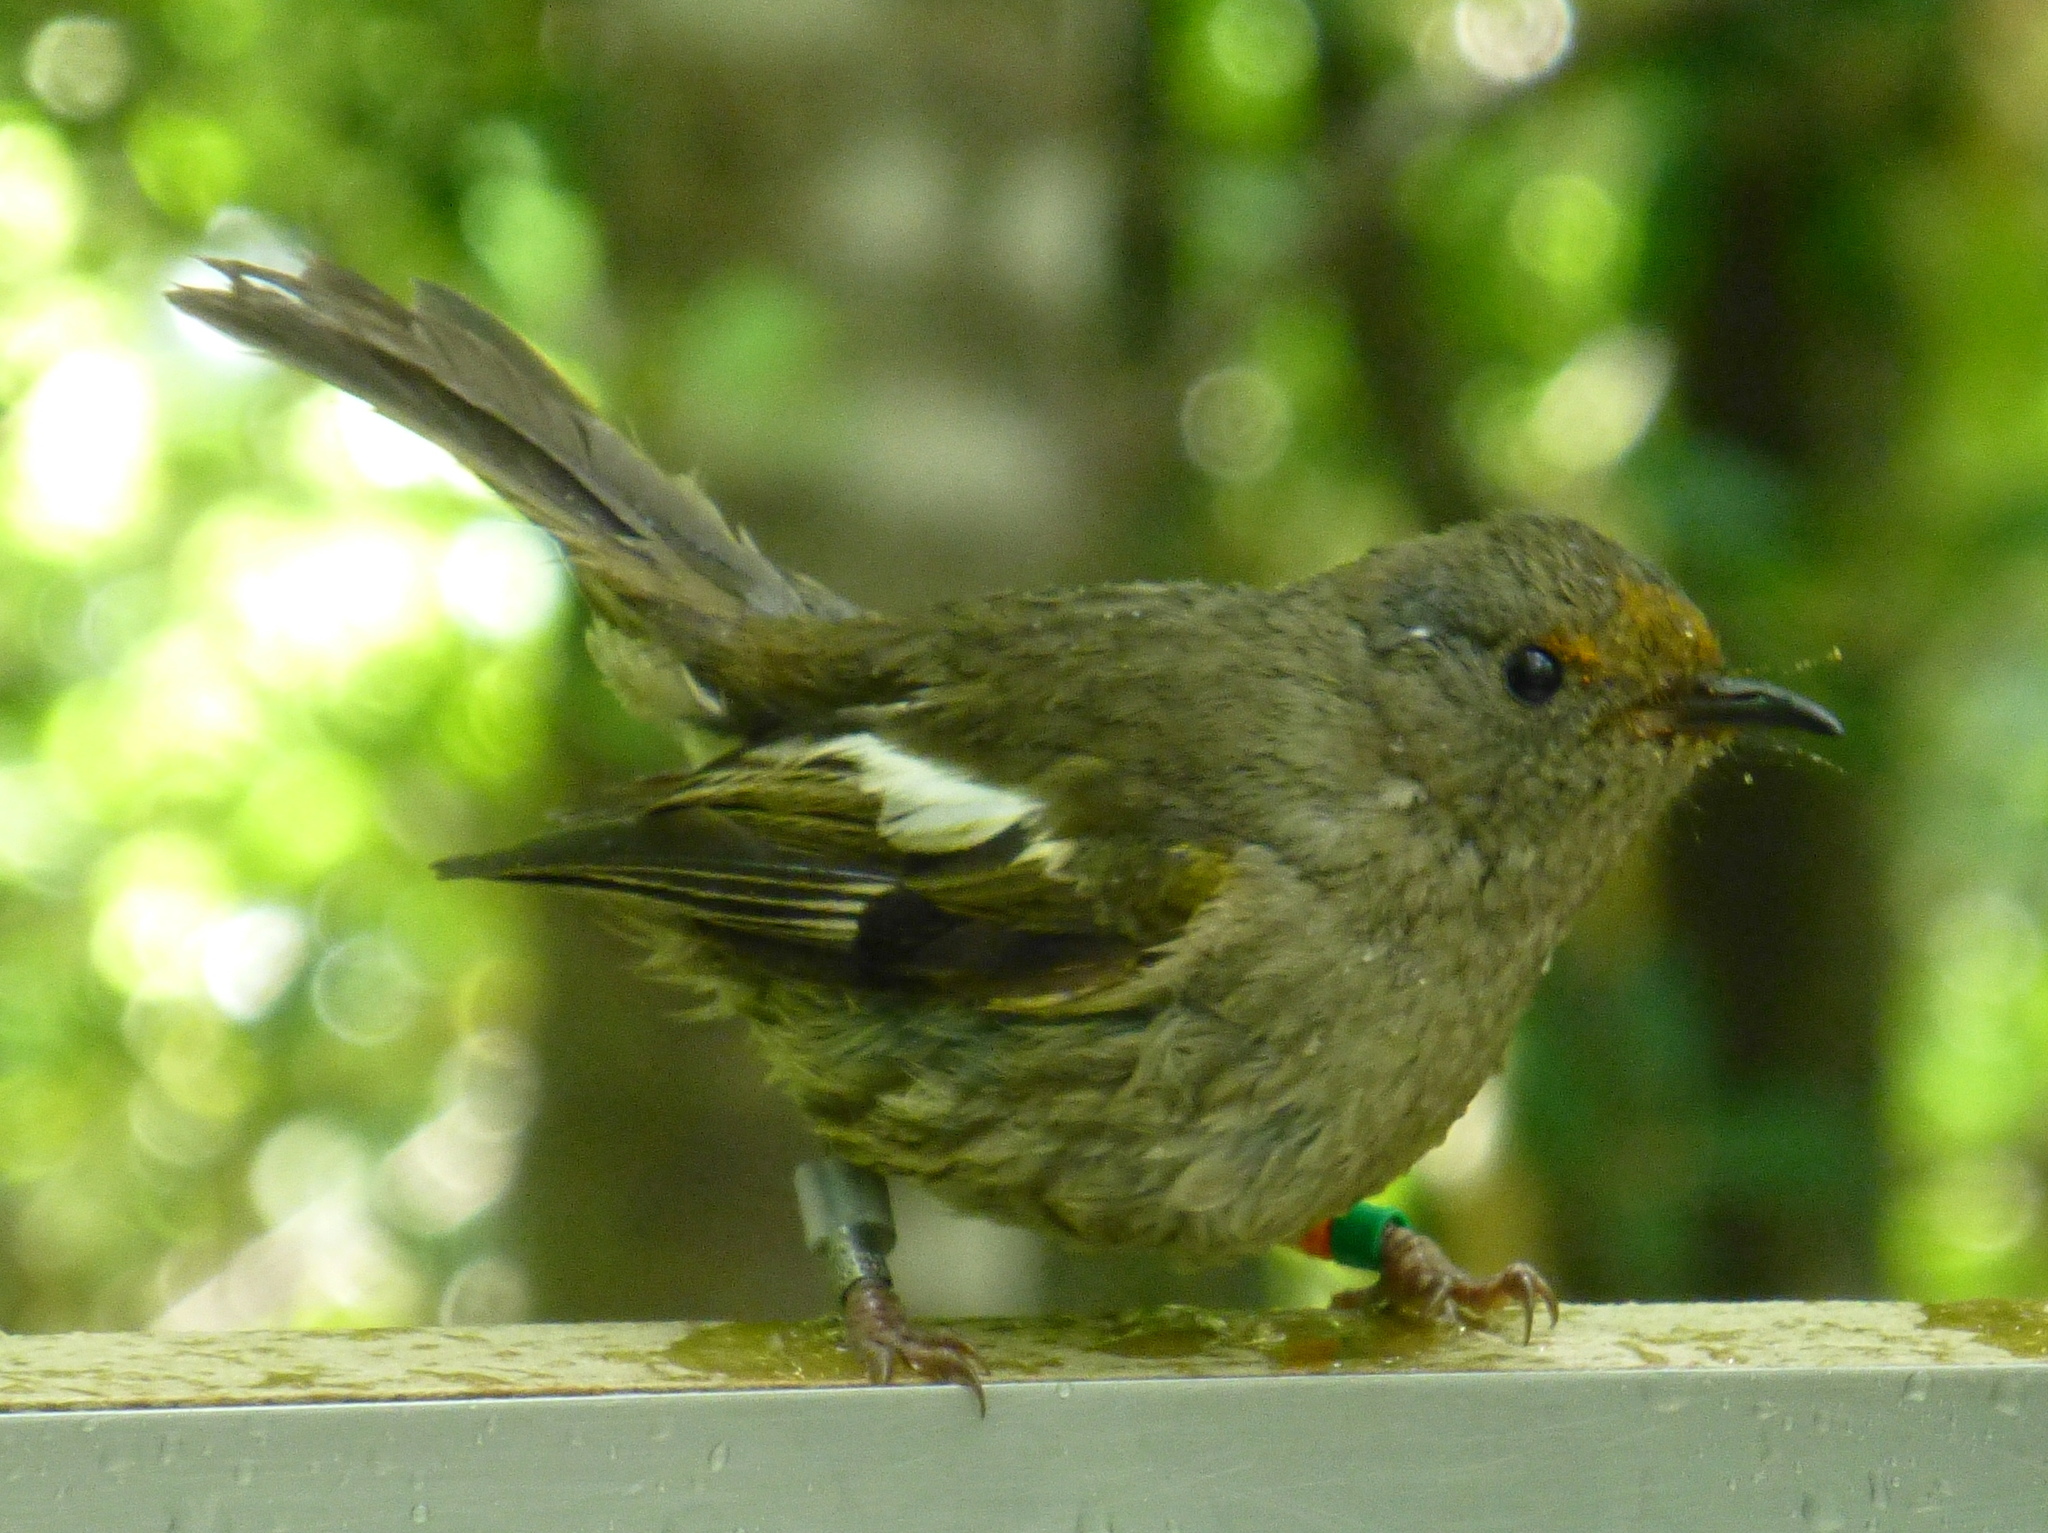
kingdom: Animalia
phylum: Chordata
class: Aves
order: Passeriformes
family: Notiomystidae
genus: Notiomystis
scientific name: Notiomystis cincta
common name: Stitchbird
